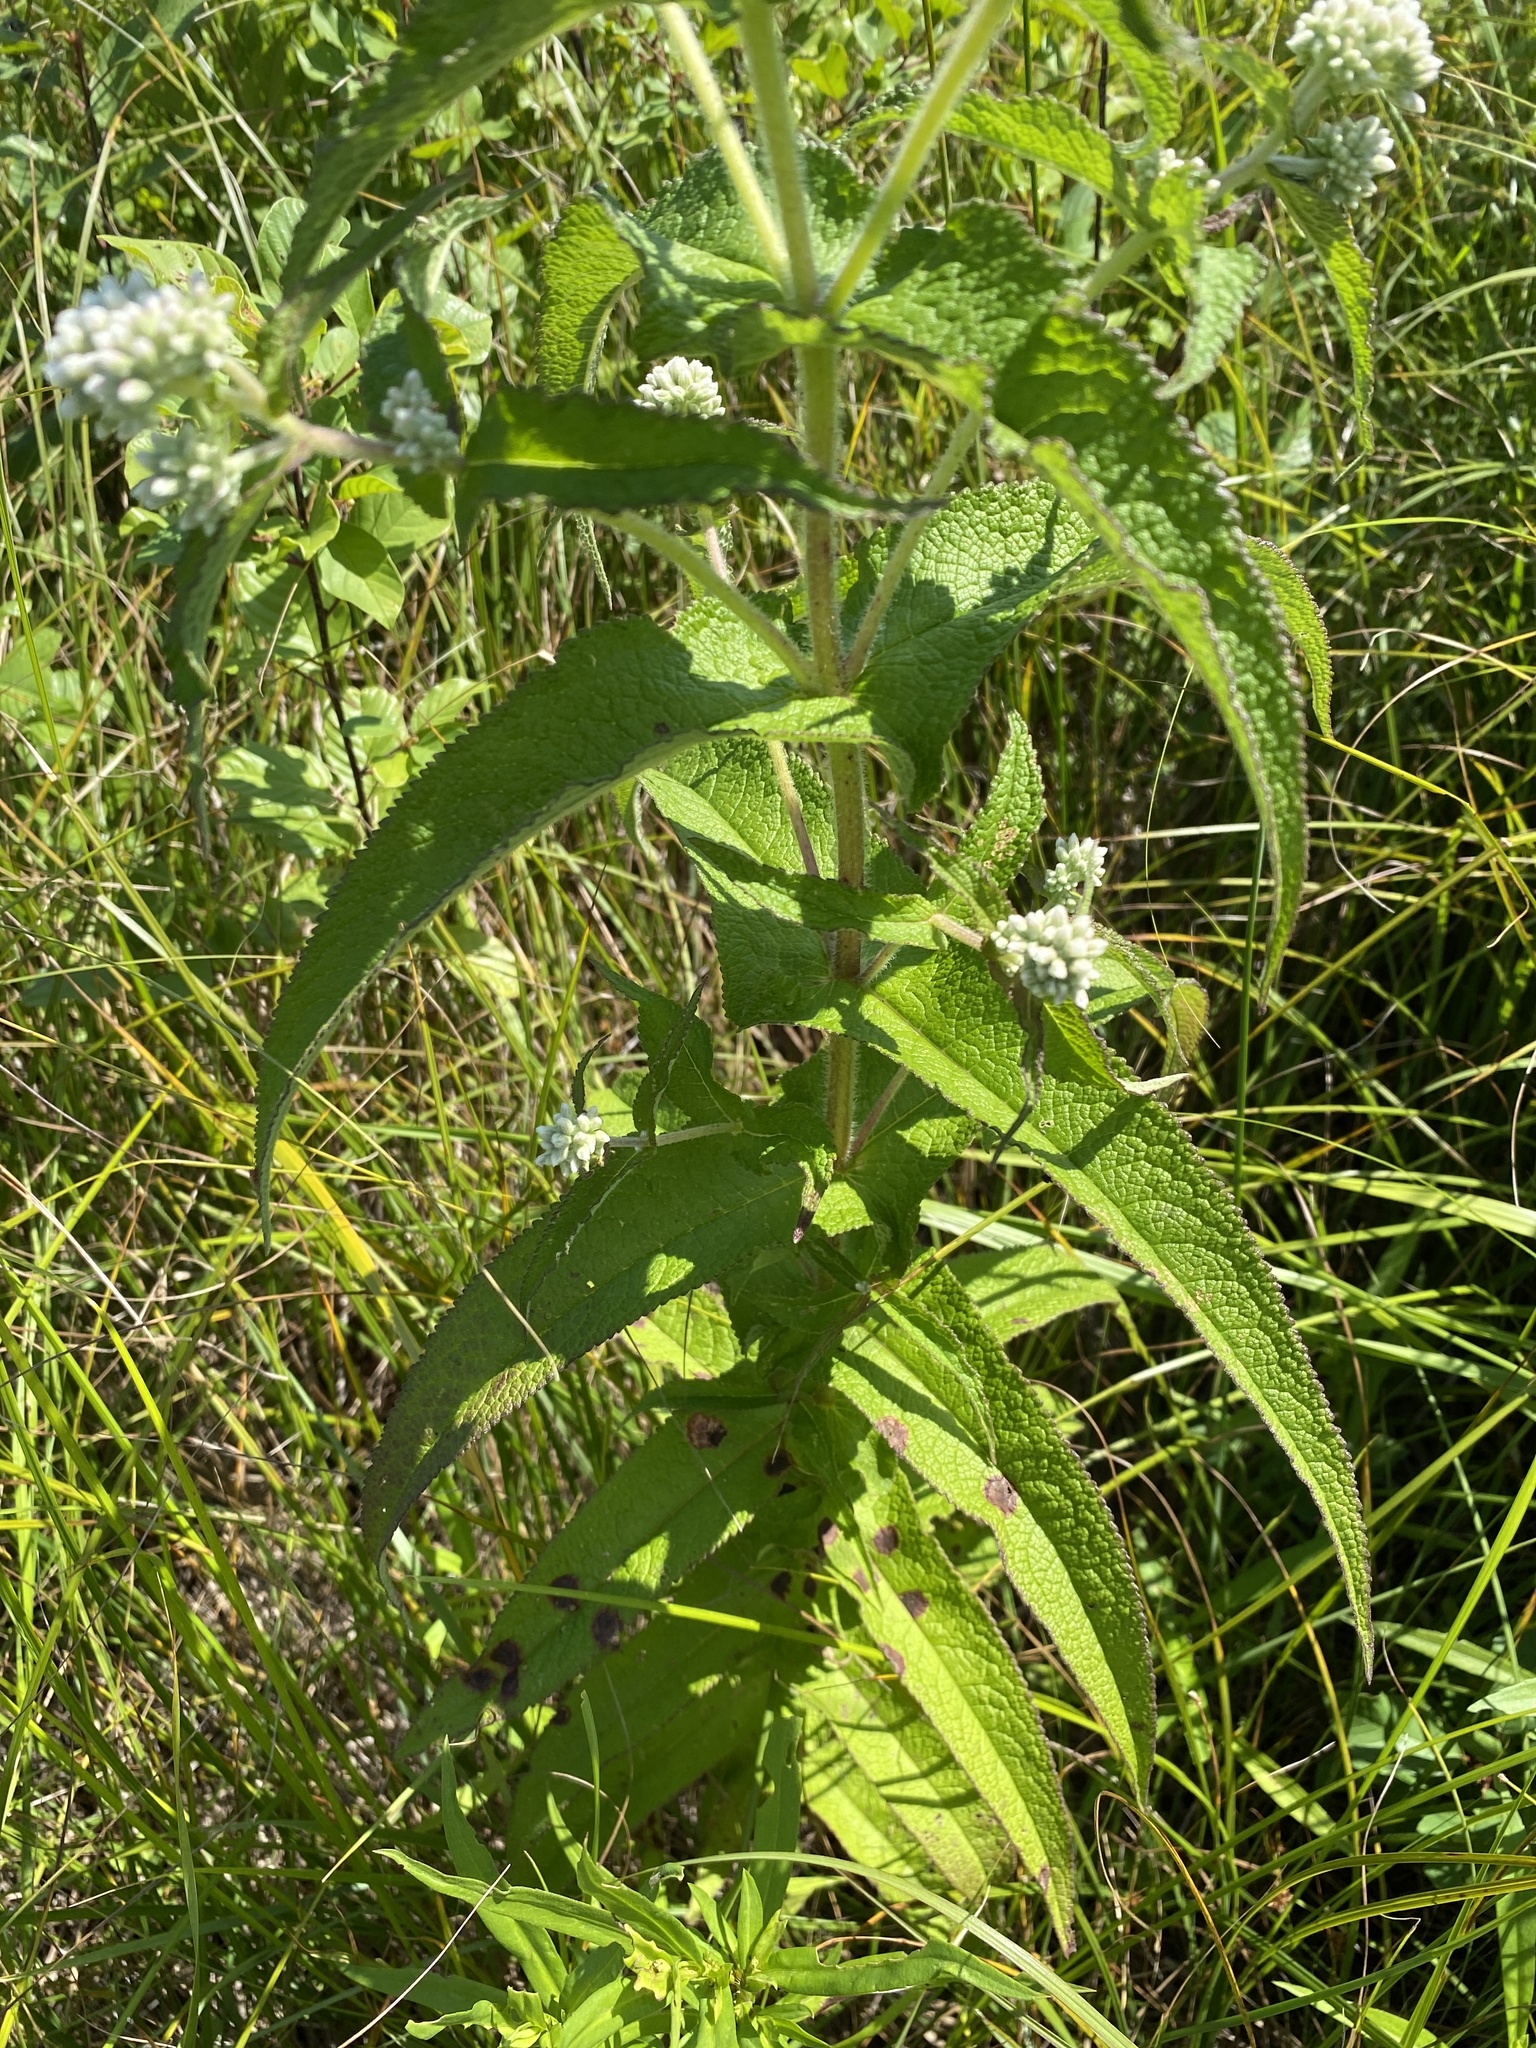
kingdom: Plantae
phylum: Tracheophyta
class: Magnoliopsida
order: Asterales
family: Asteraceae
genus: Eupatorium
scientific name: Eupatorium perfoliatum
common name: Boneset
